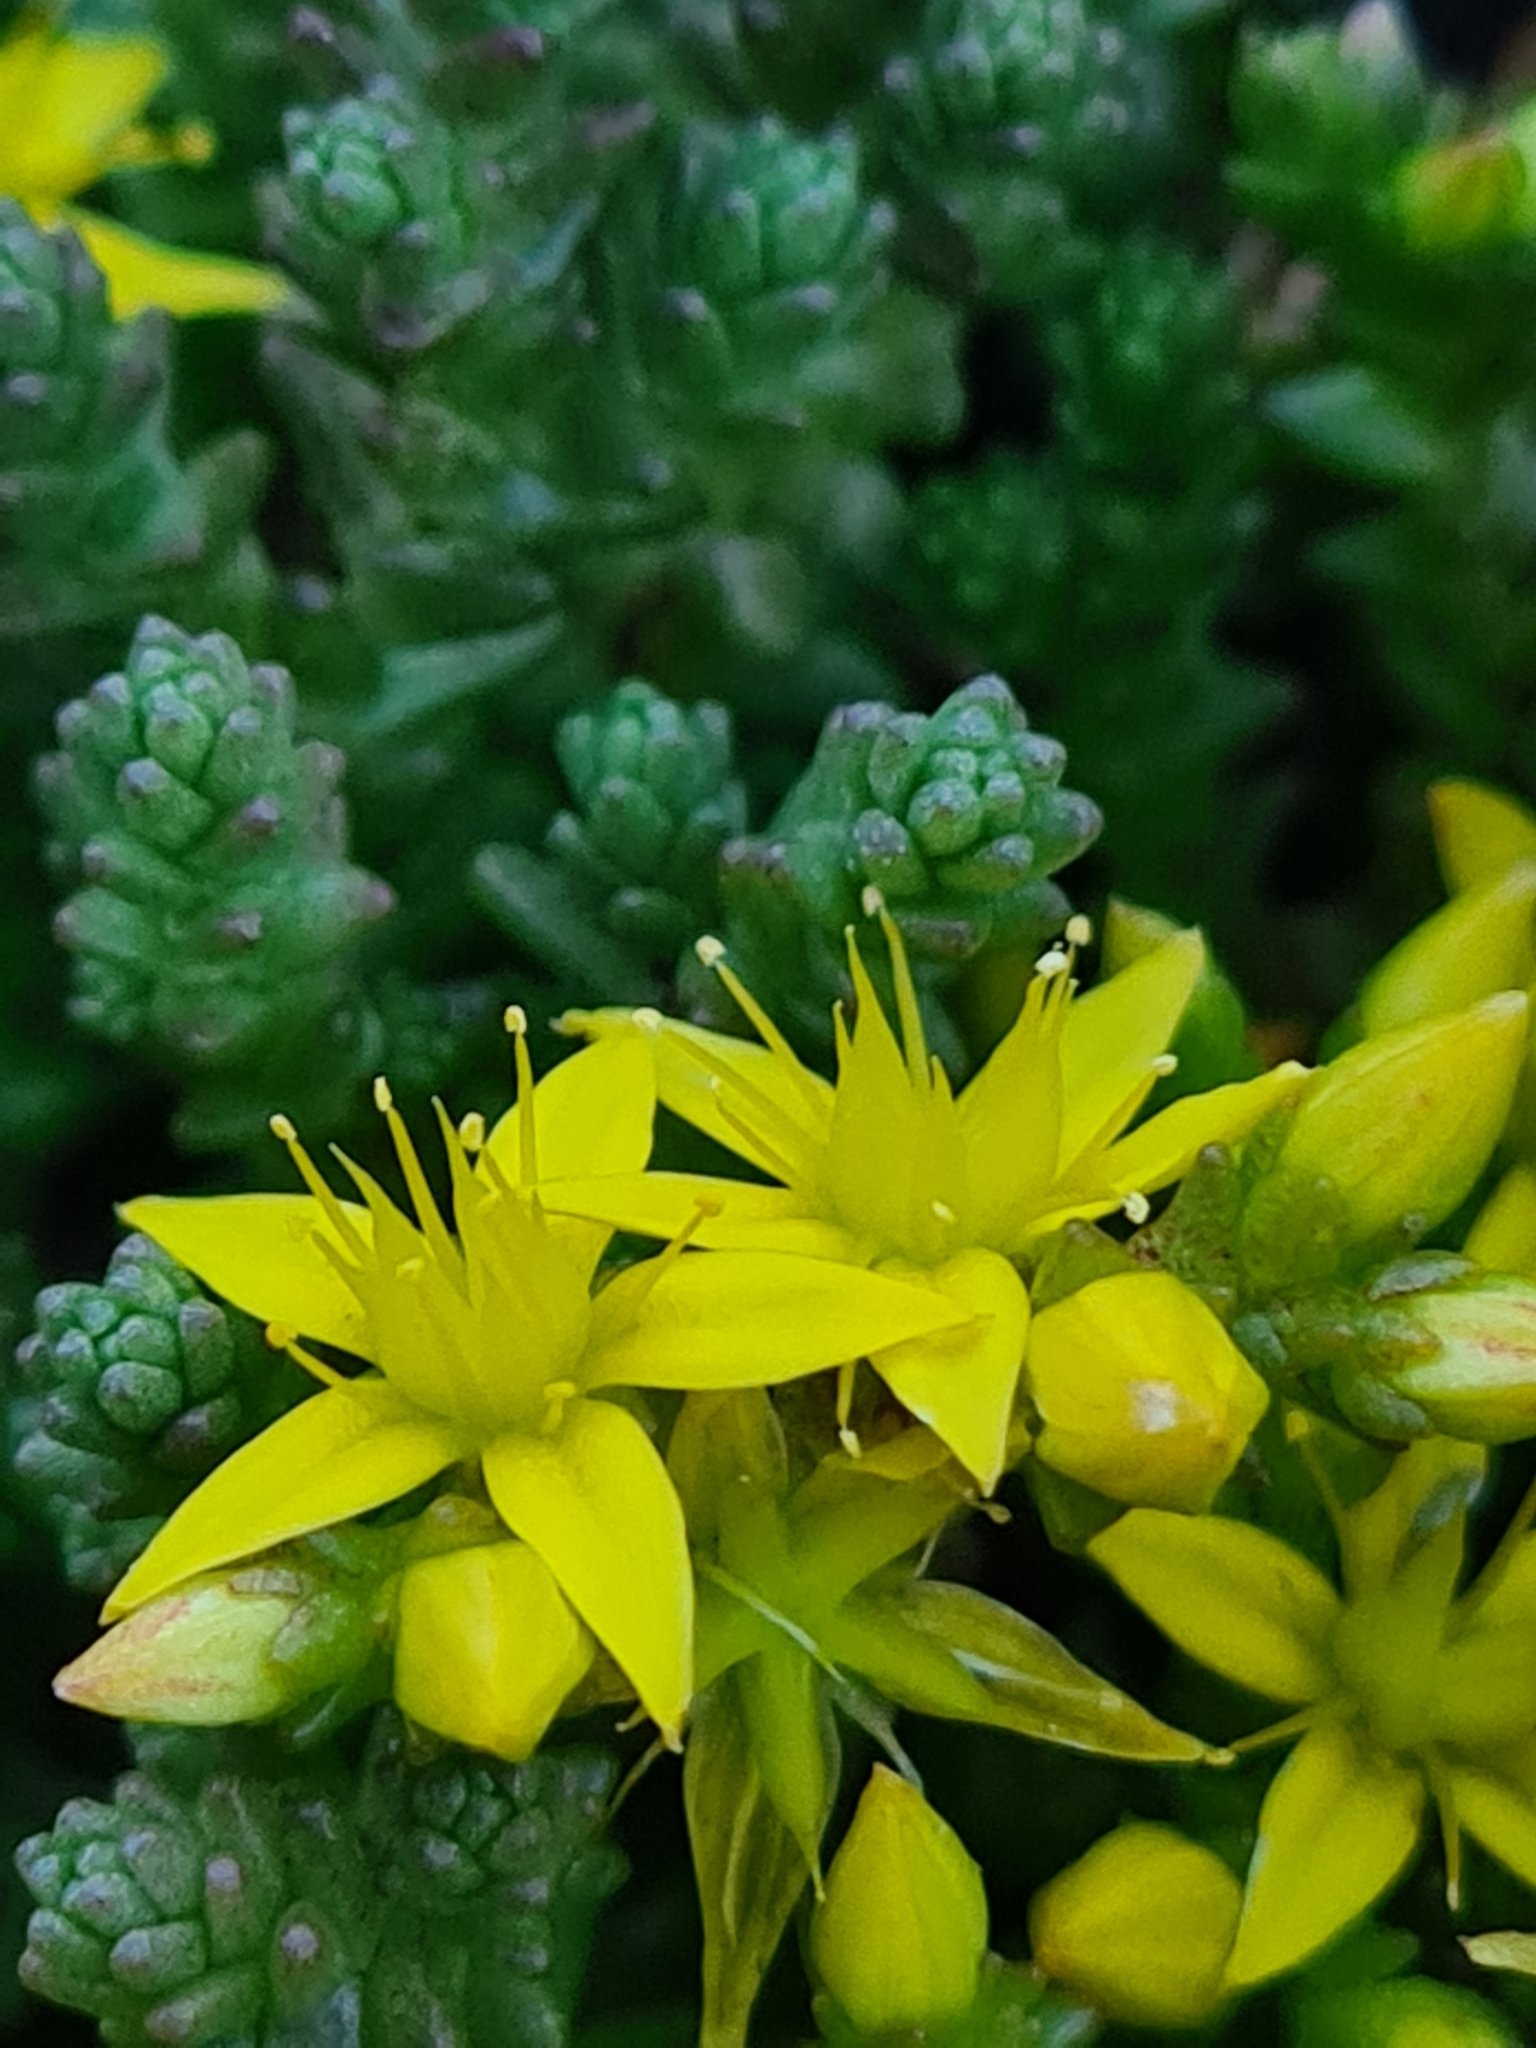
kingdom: Plantae
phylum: Tracheophyta
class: Magnoliopsida
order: Saxifragales
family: Crassulaceae
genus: Sedum
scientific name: Sedum acre
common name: Biting stonecrop
